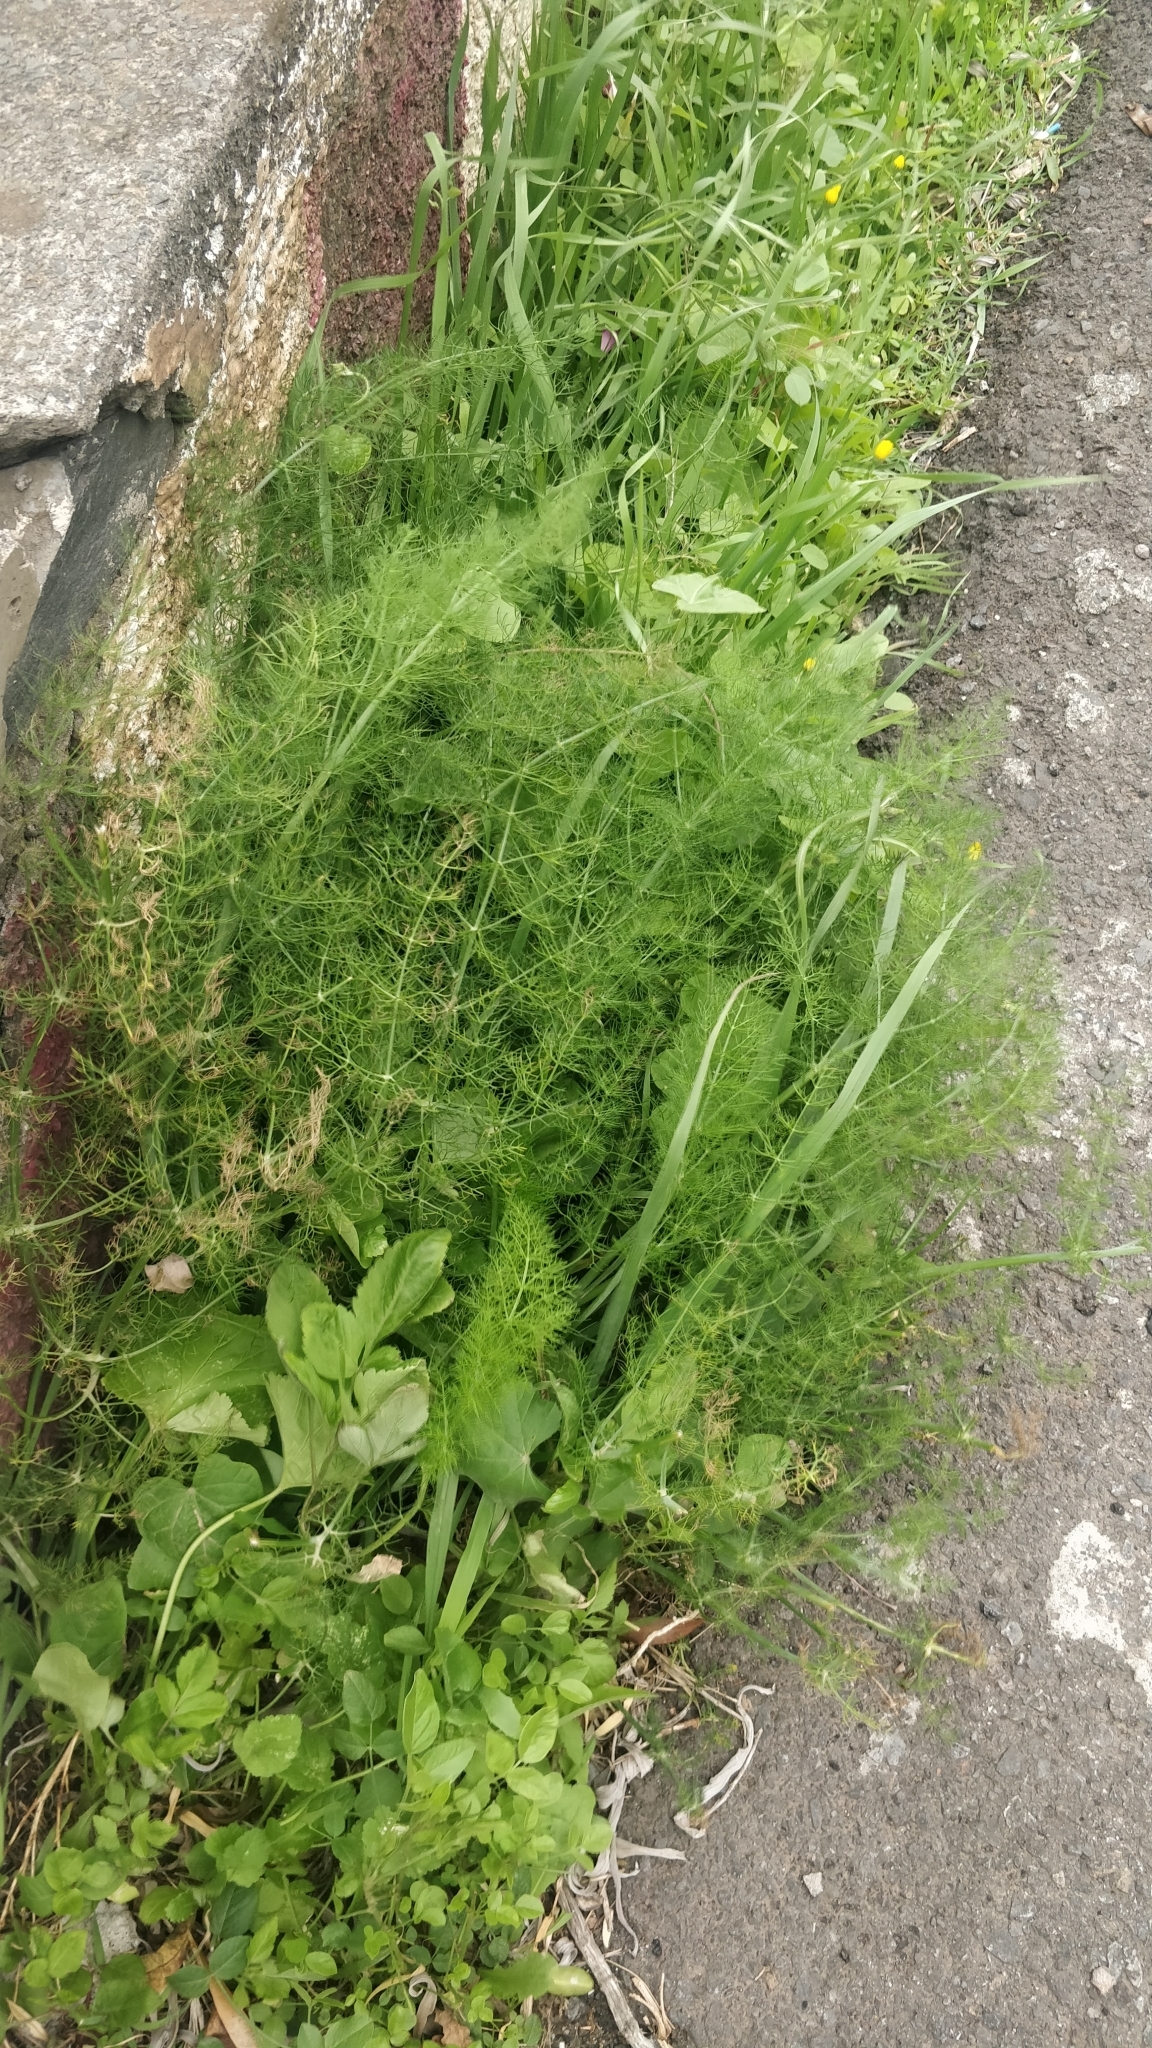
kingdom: Plantae
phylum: Tracheophyta
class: Magnoliopsida
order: Apiales
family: Apiaceae
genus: Foeniculum
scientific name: Foeniculum vulgare
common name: Fennel
